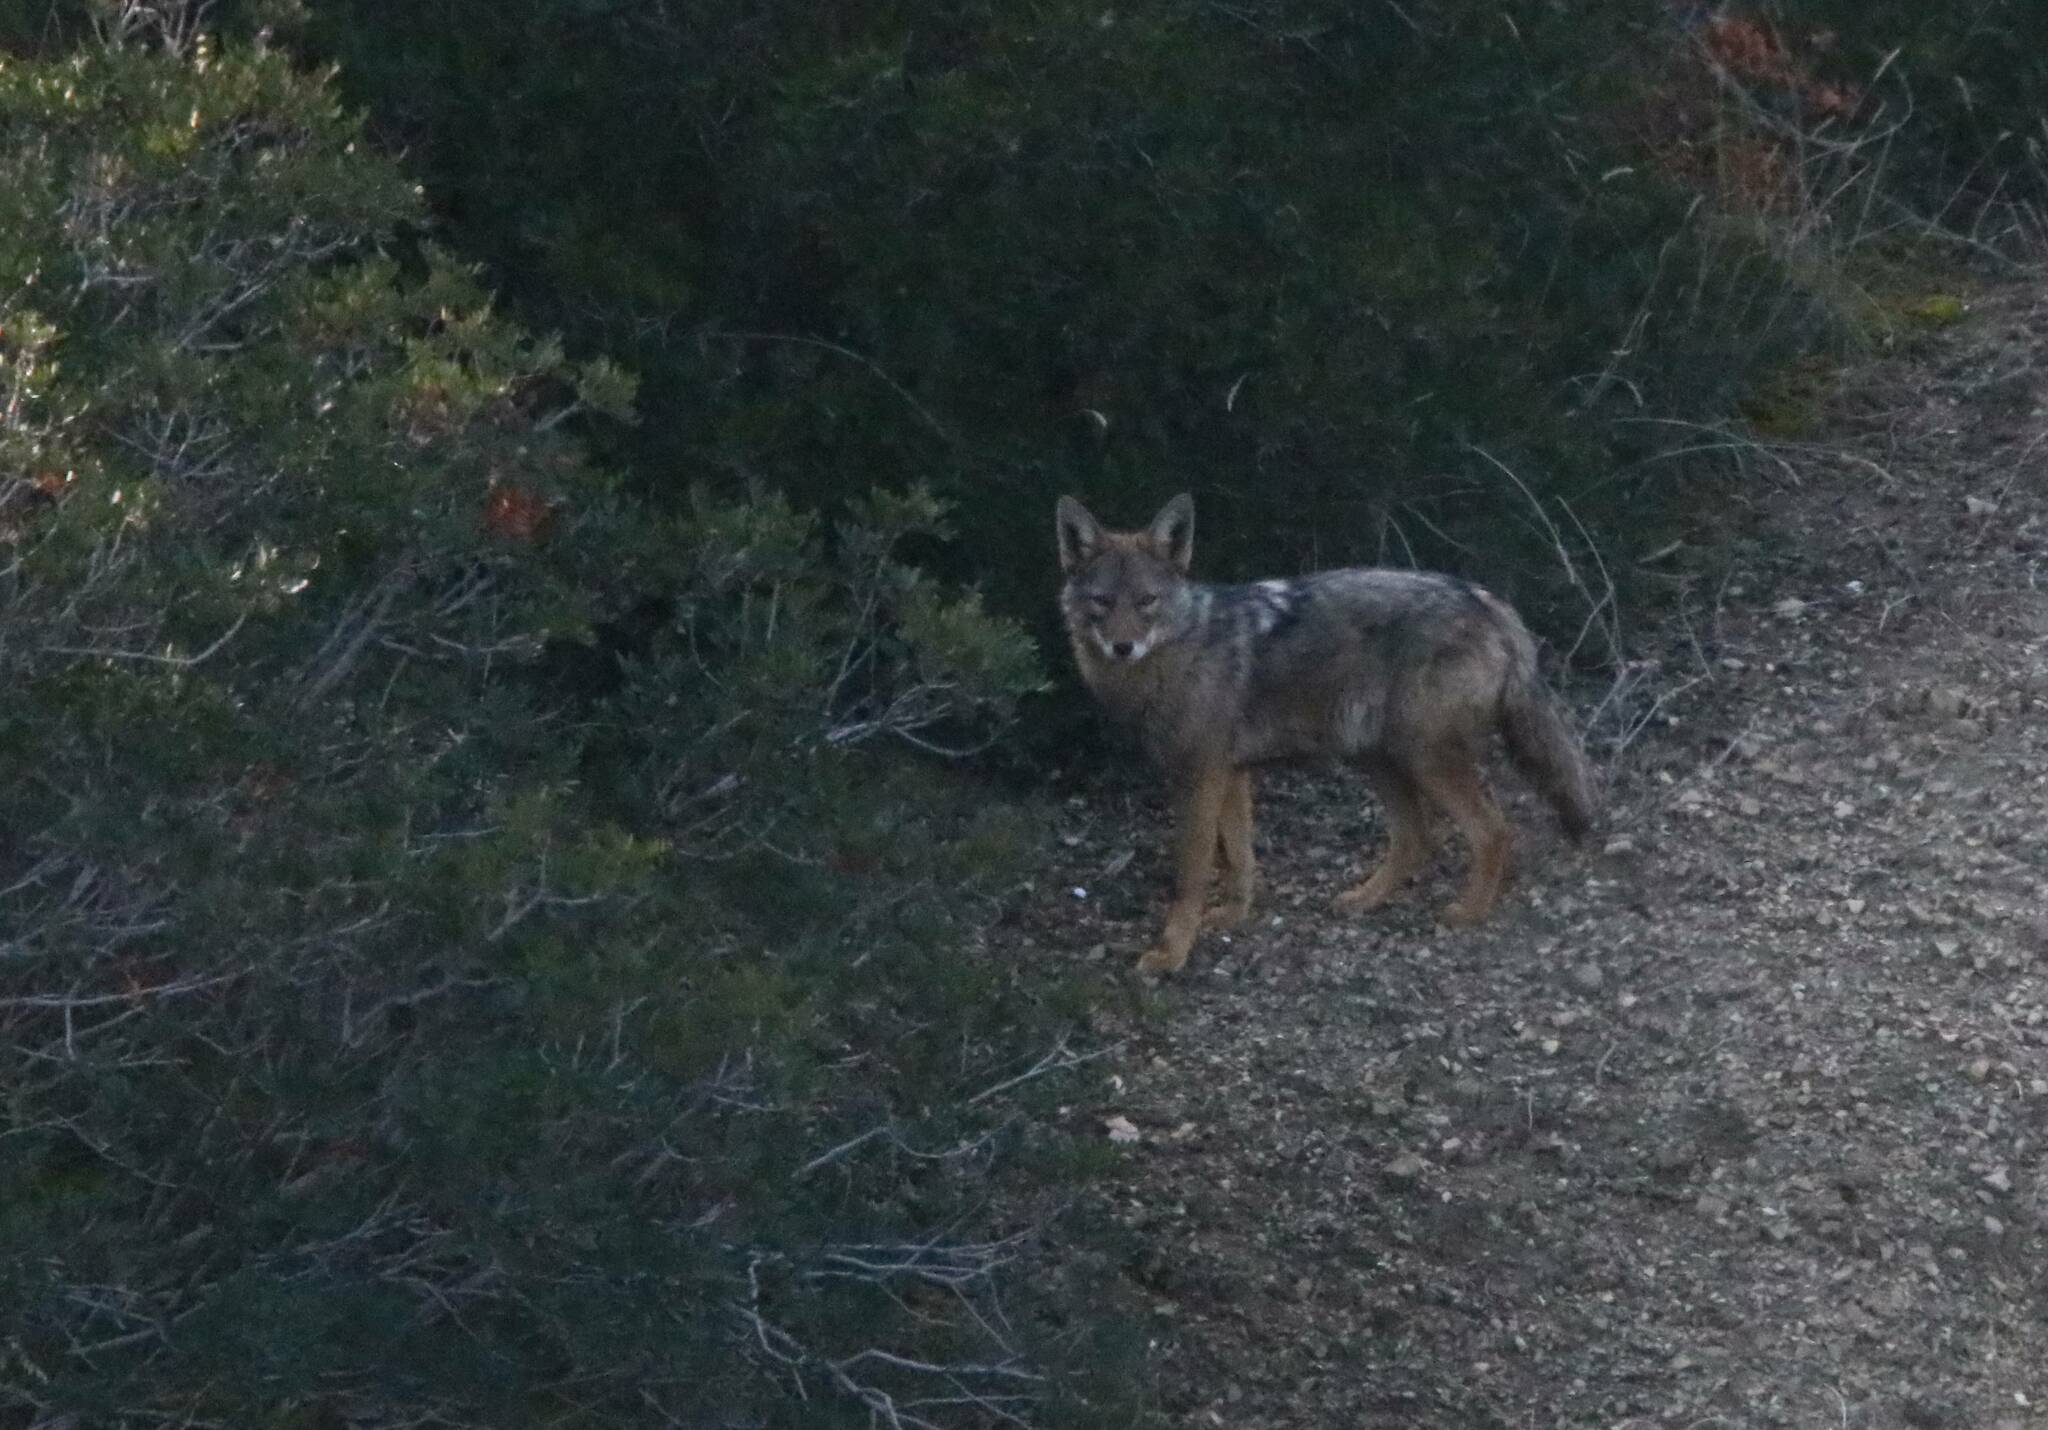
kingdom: Animalia
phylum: Chordata
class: Mammalia
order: Carnivora
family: Canidae
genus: Canis
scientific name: Canis lupaster
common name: African golden wolf
